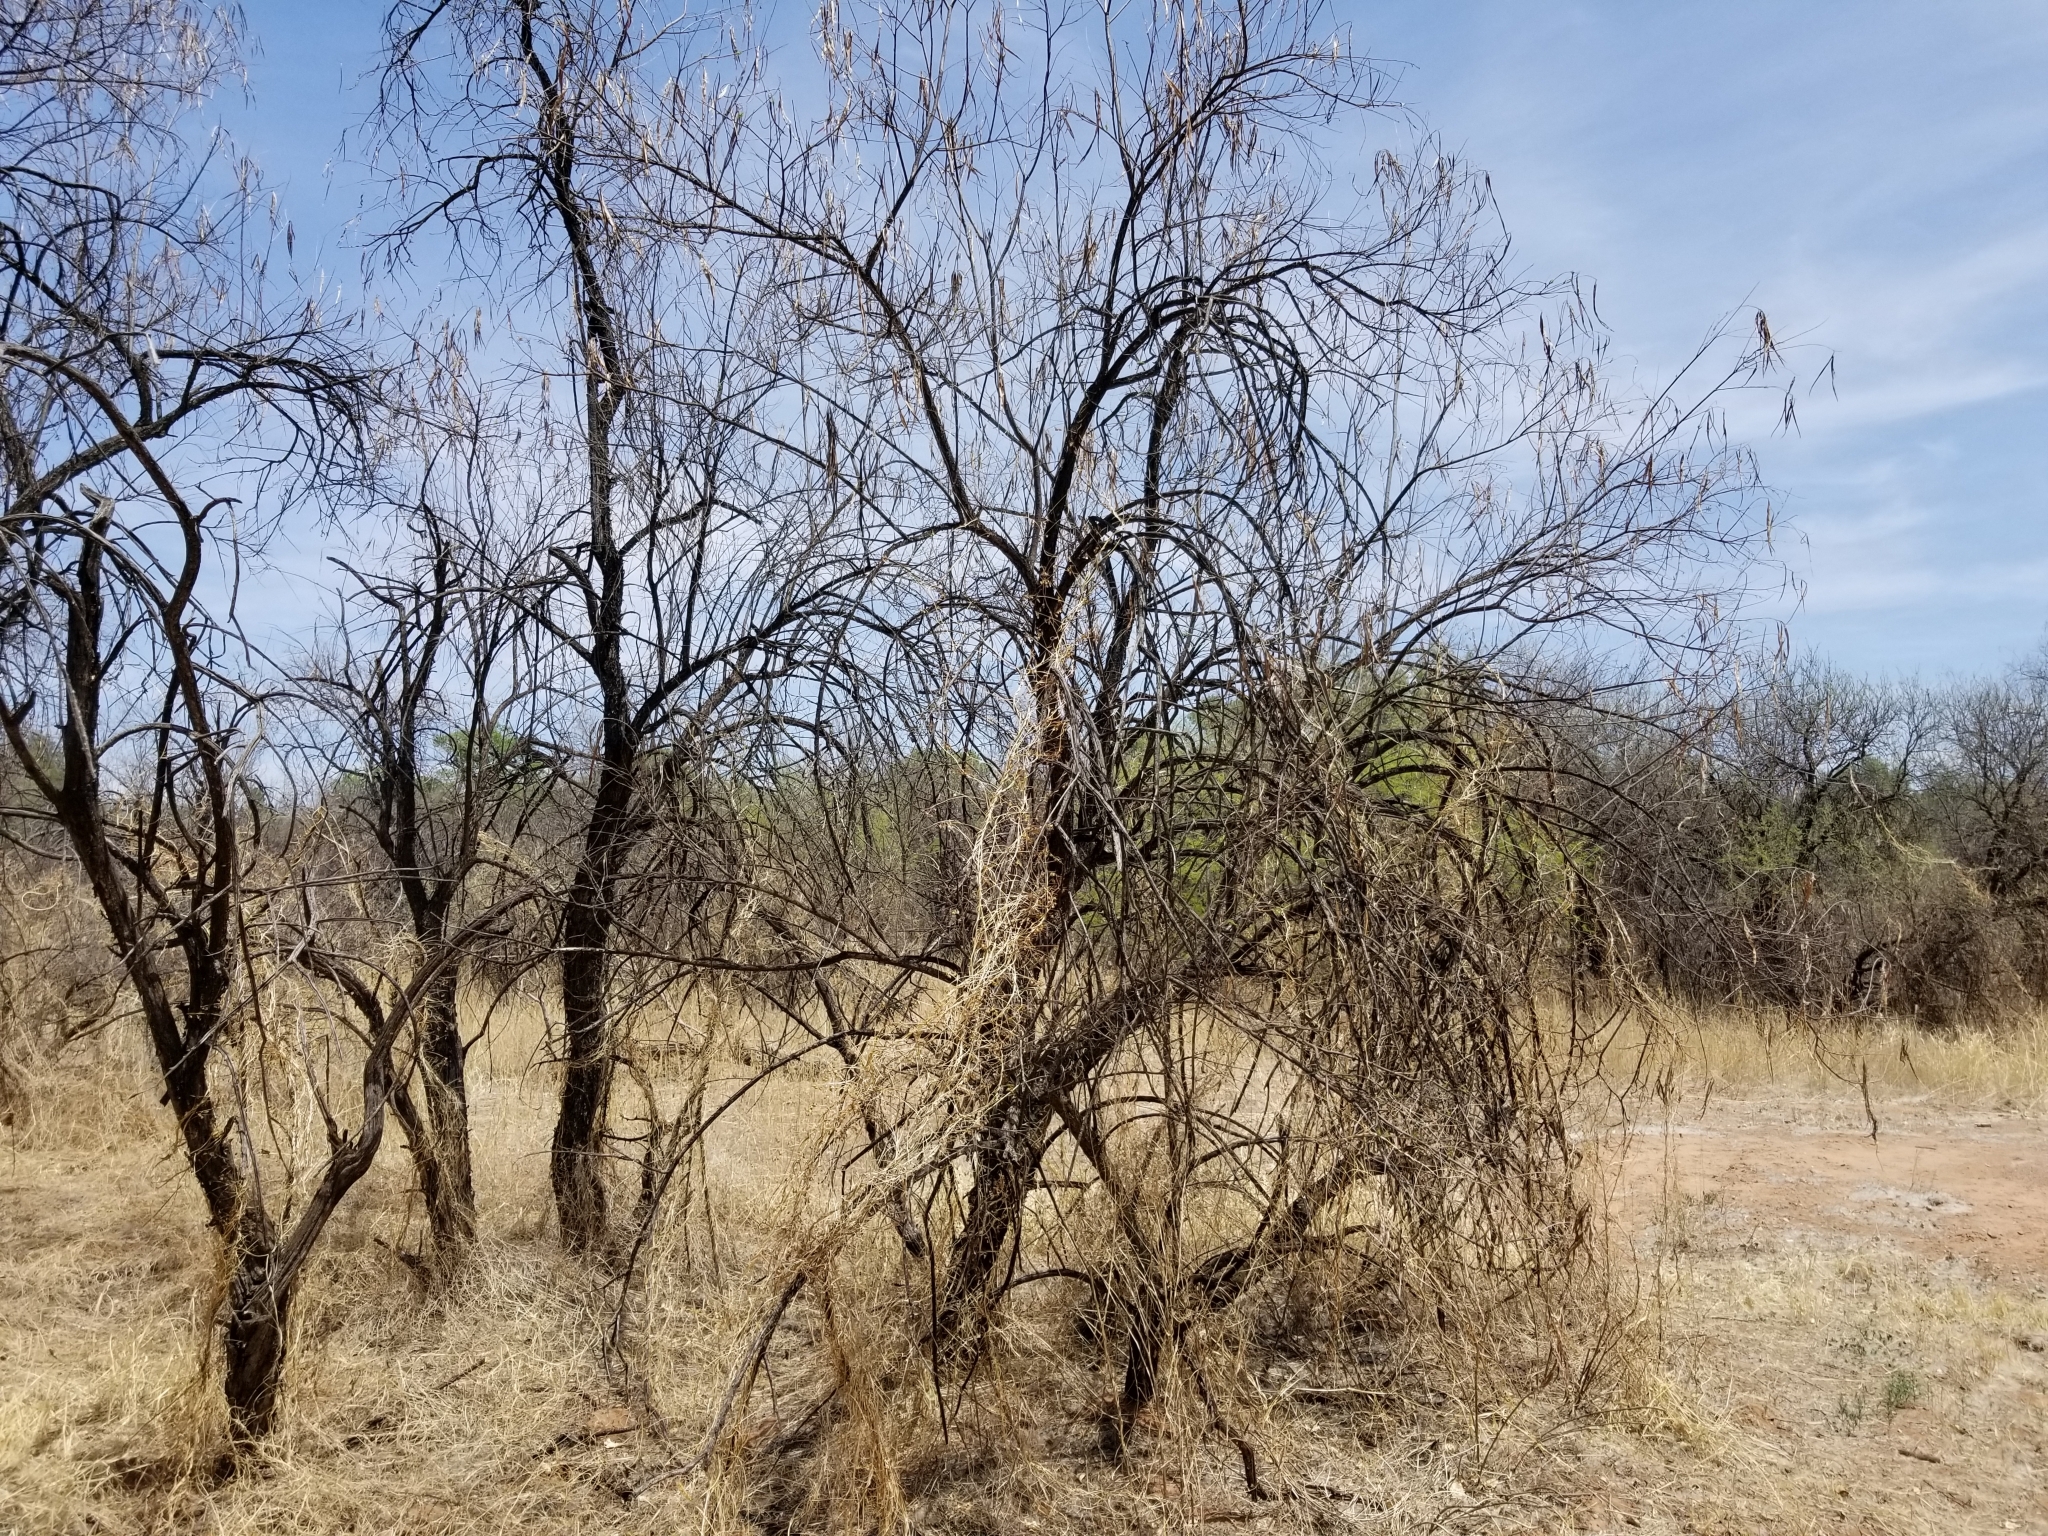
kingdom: Plantae
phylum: Tracheophyta
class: Magnoliopsida
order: Lamiales
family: Bignoniaceae
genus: Chilopsis
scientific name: Chilopsis linearis
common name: Desert-willow
